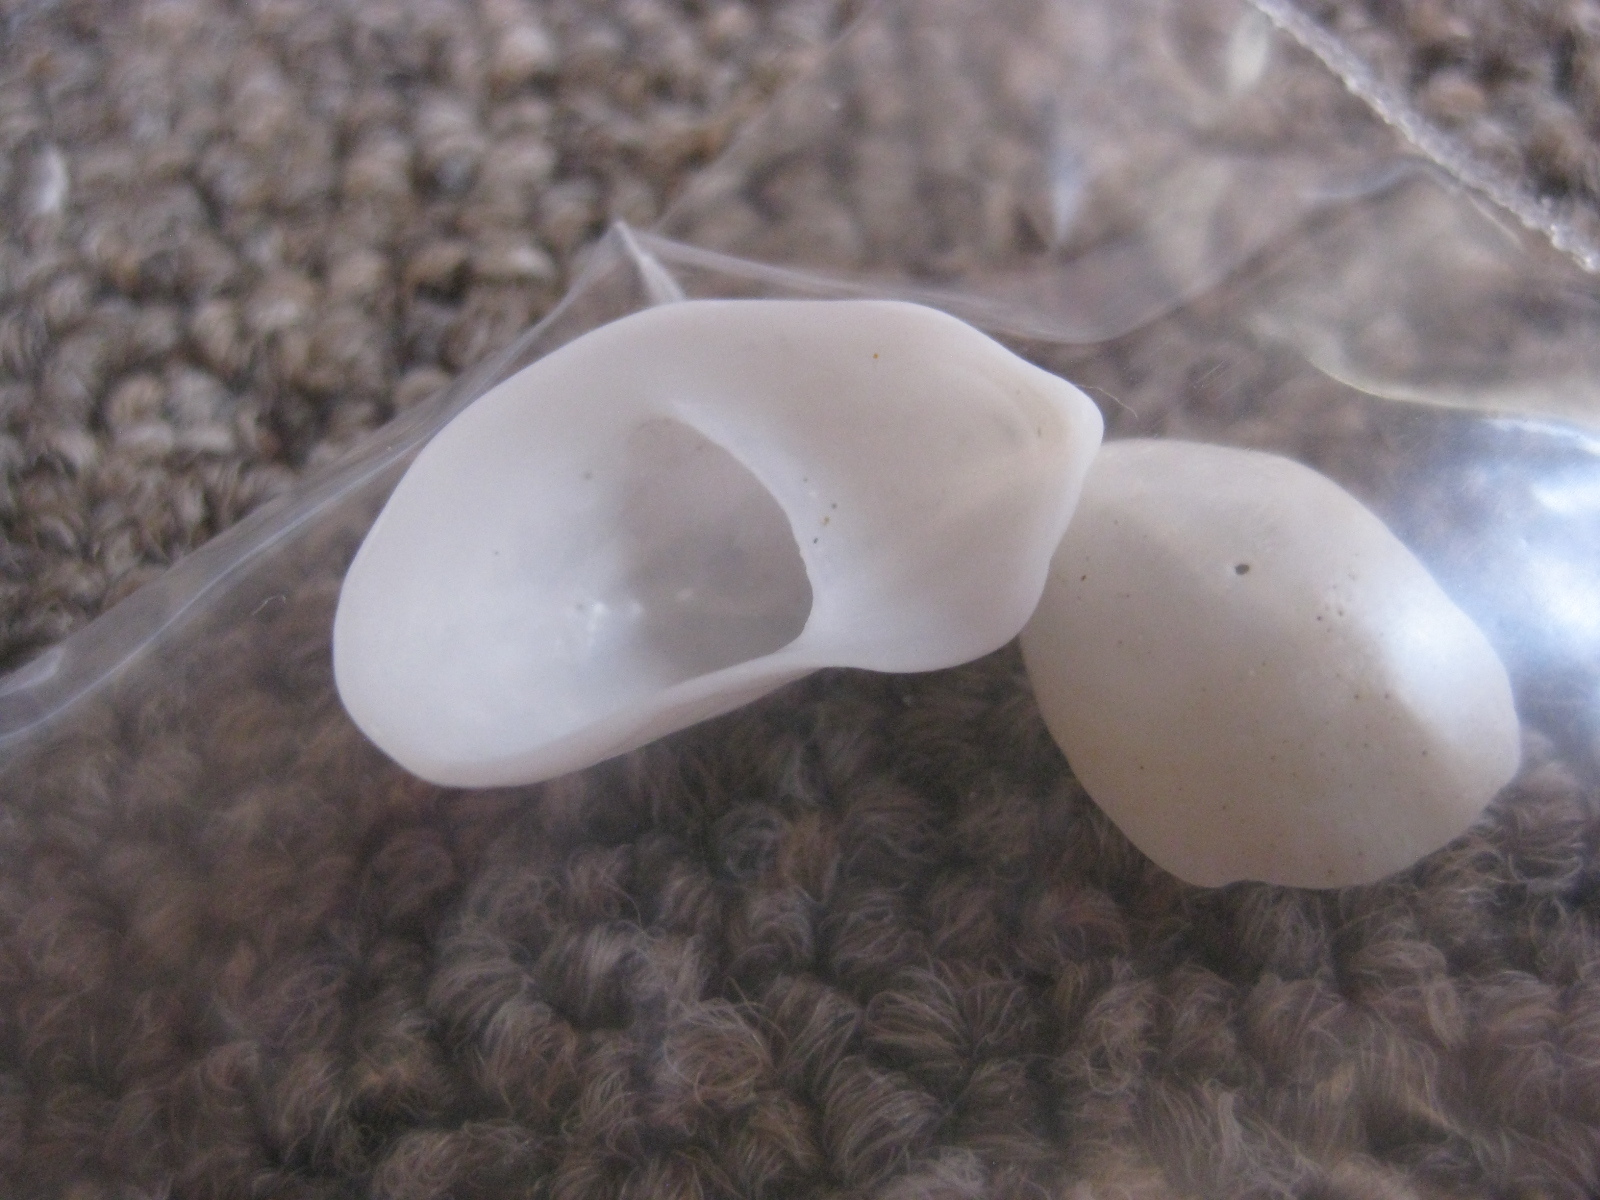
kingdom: Animalia
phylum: Mollusca
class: Gastropoda
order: Littorinimorpha
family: Calyptraeidae
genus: Maoricrypta
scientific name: Maoricrypta monoxyla
